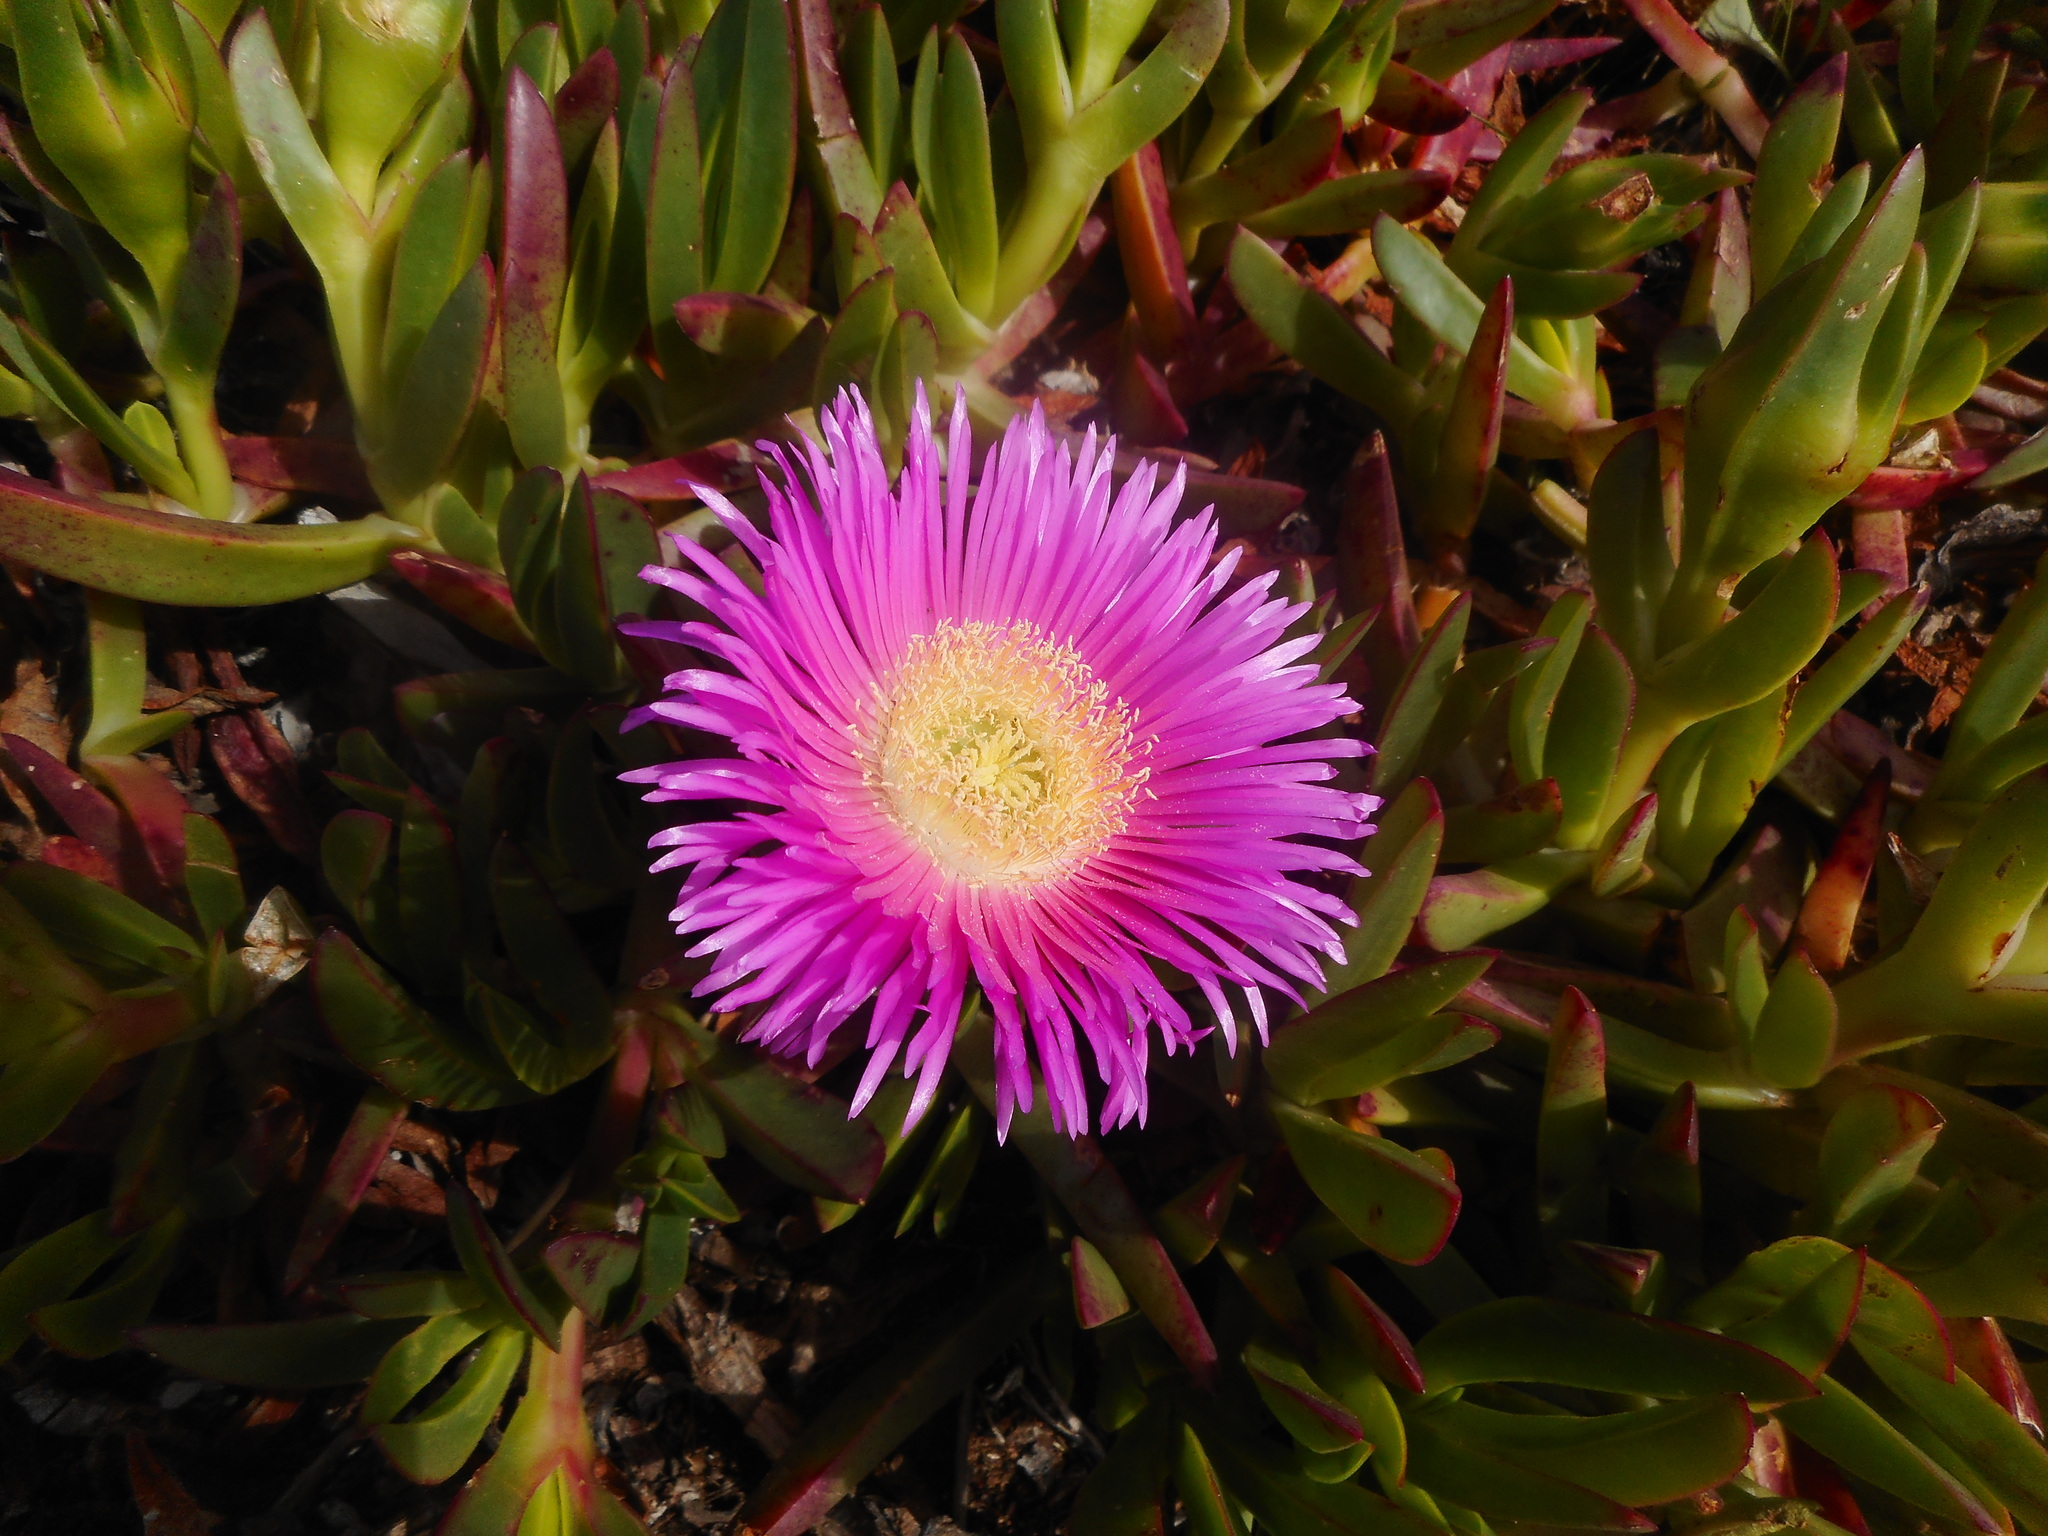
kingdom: Plantae
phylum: Tracheophyta
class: Magnoliopsida
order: Caryophyllales
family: Aizoaceae
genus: Carpobrotus
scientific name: Carpobrotus acinaciformis
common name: Sally-my-handsome
